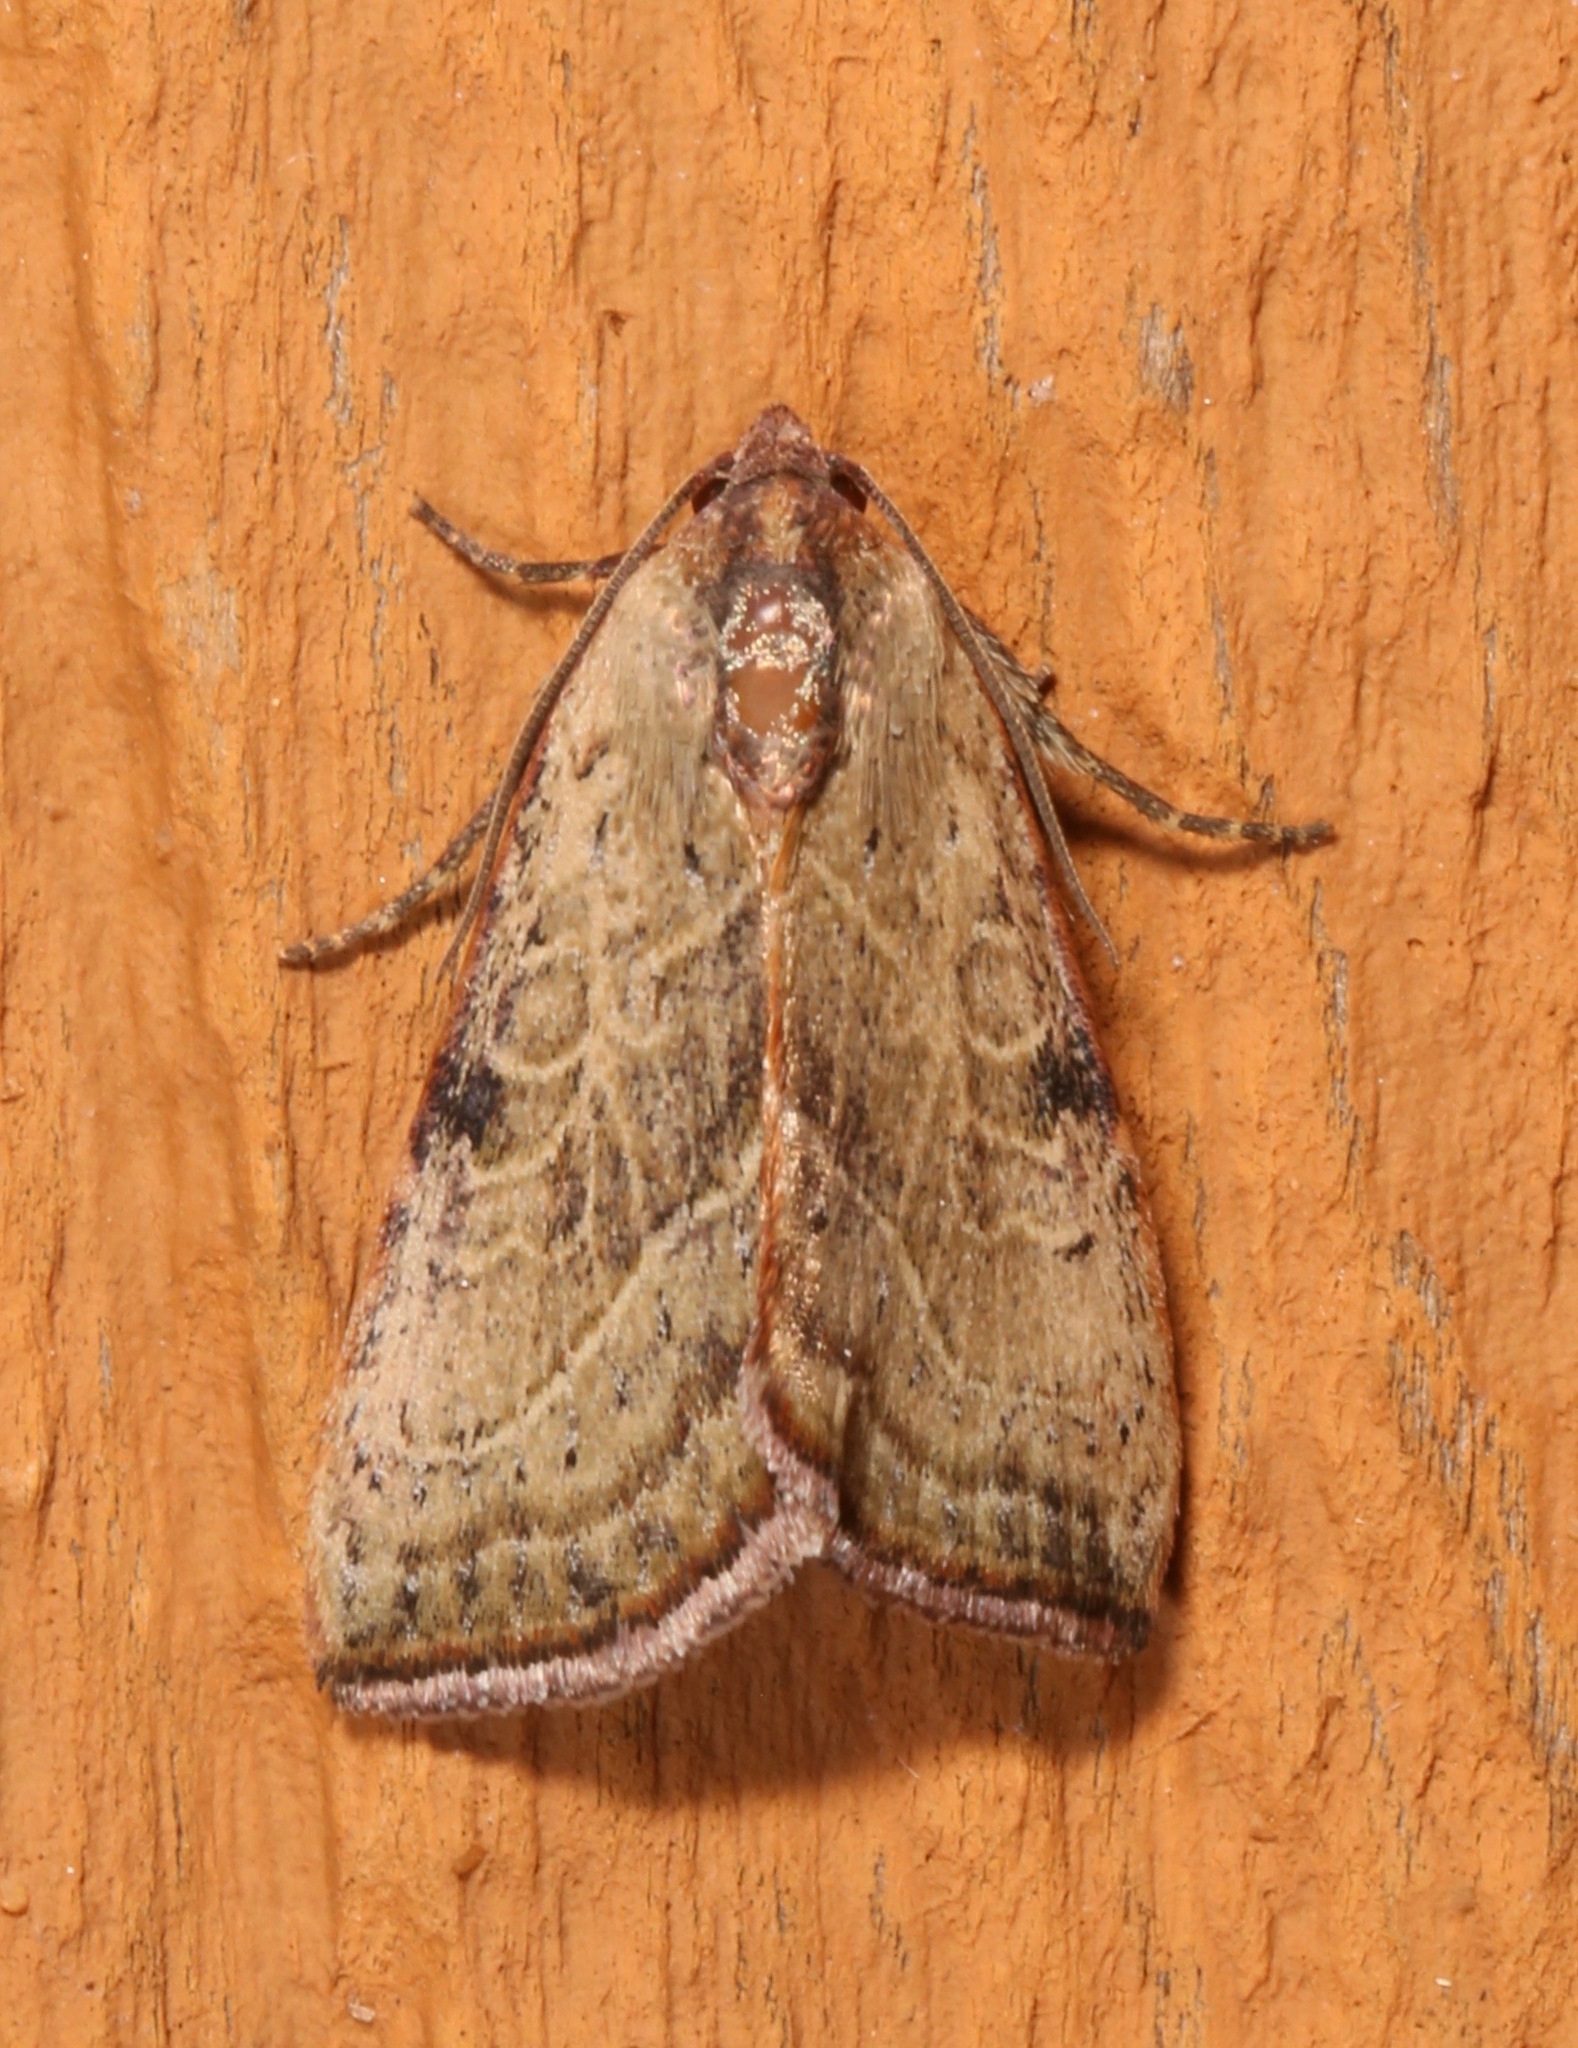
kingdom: Animalia
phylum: Arthropoda
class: Insecta
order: Lepidoptera
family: Noctuidae
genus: Galgula
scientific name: Galgula partita
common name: Wedgeling
